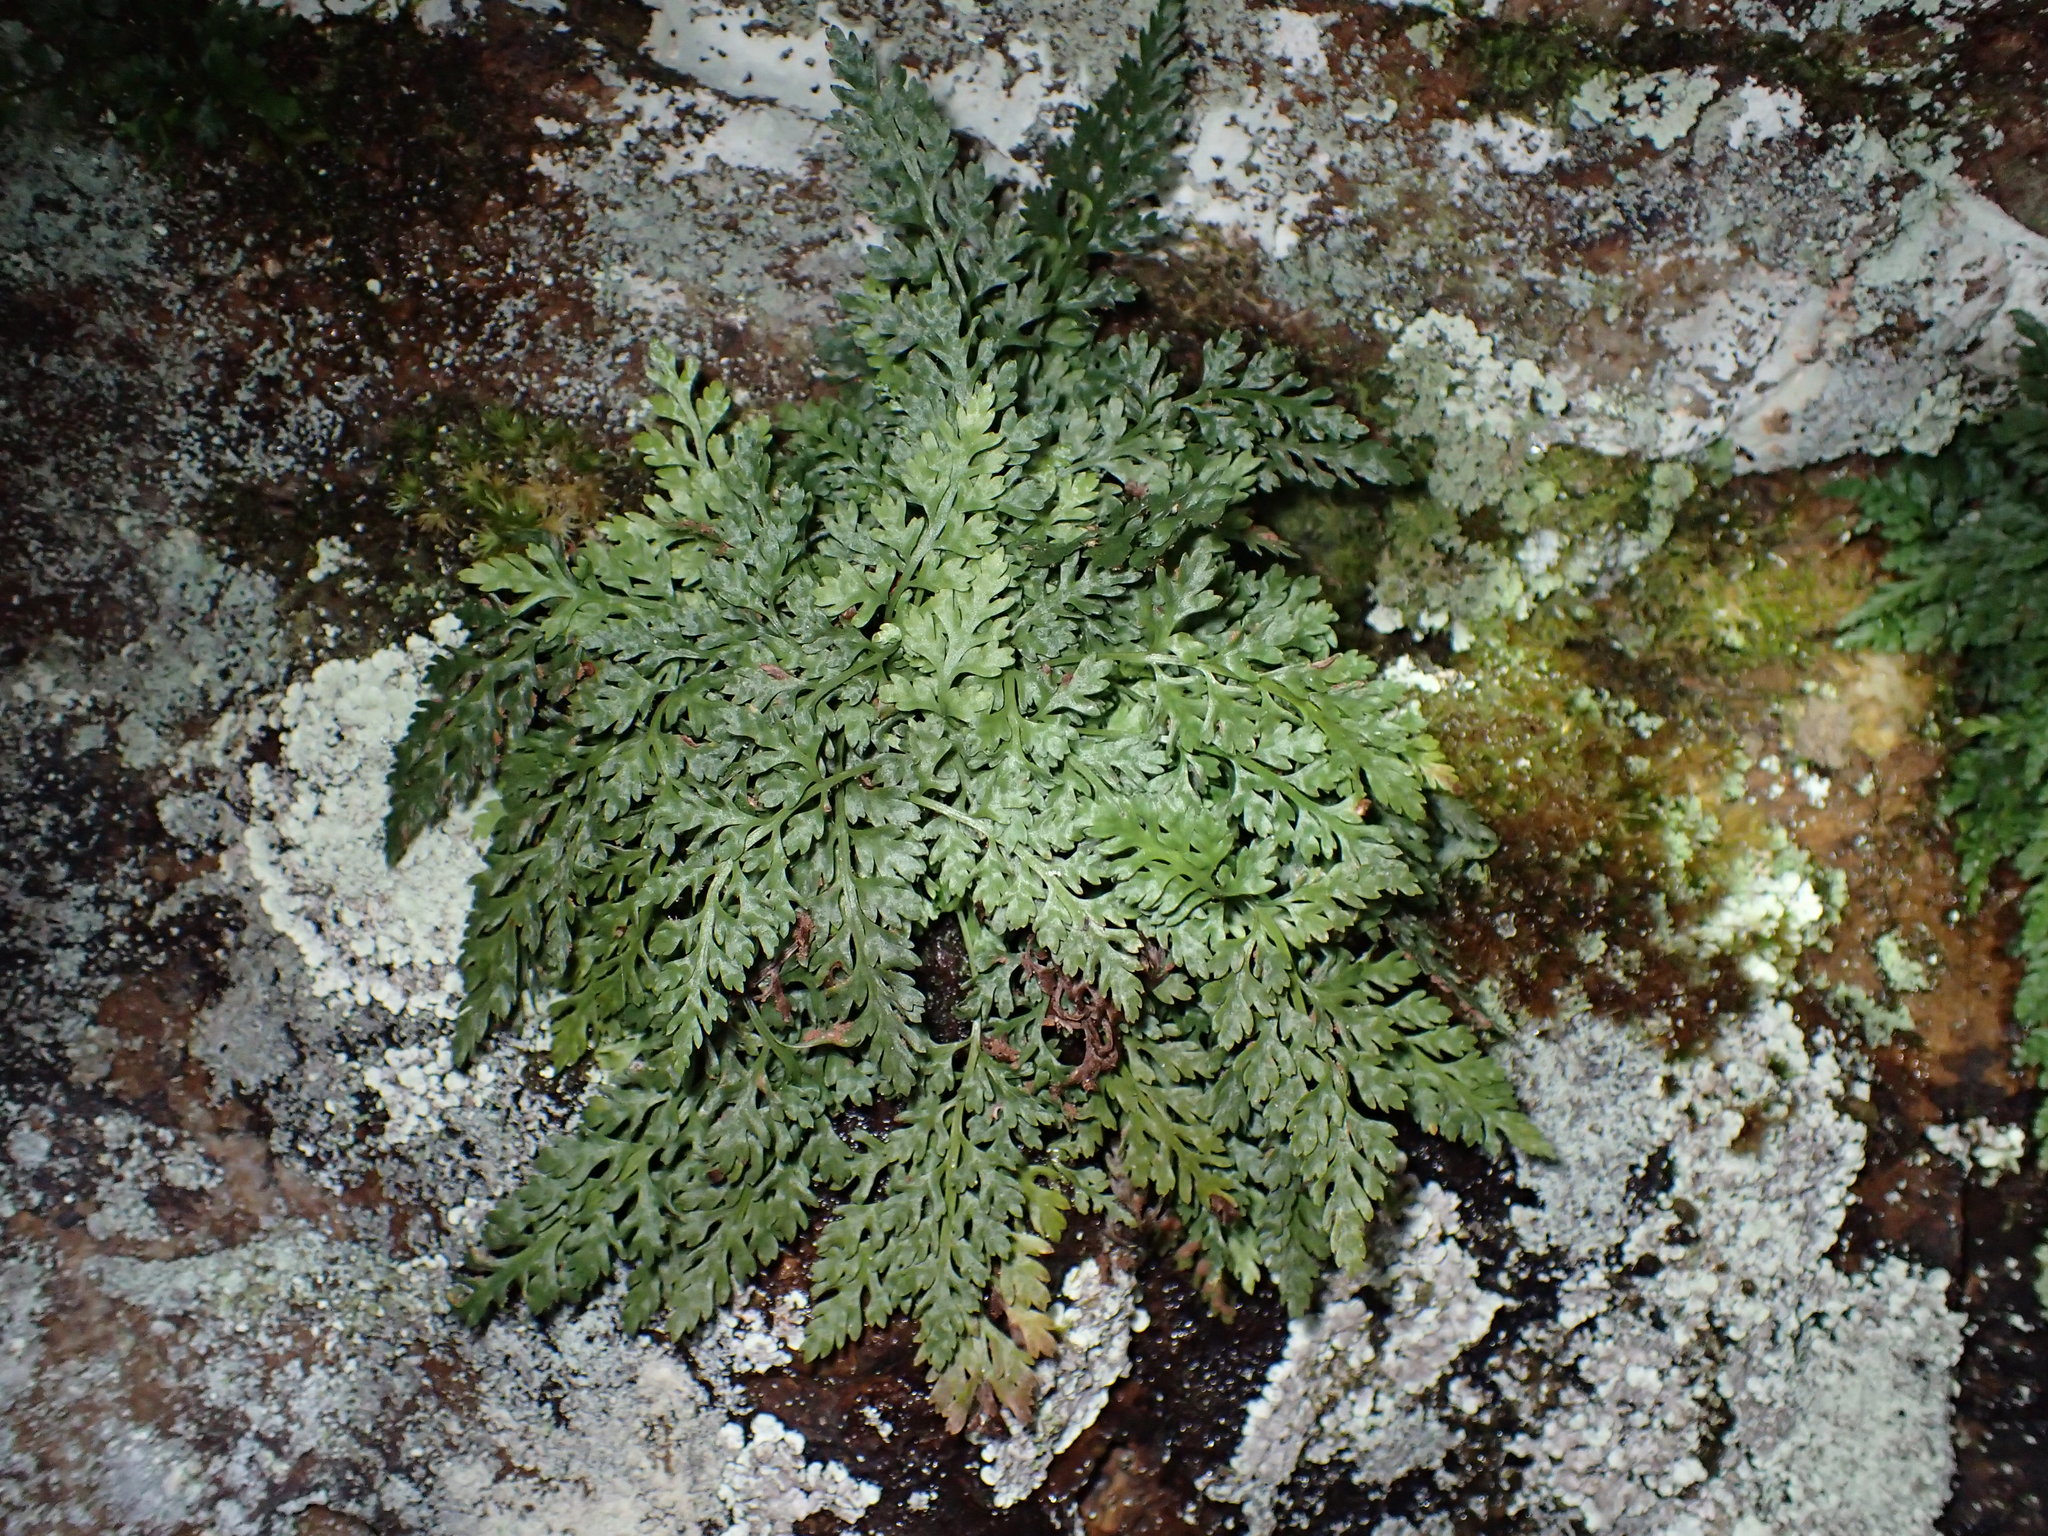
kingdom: Plantae
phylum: Tracheophyta
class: Polypodiopsida
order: Hymenophyllales
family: Hymenophyllaceae
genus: Vandenboschia
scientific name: Vandenboschia boschiana
